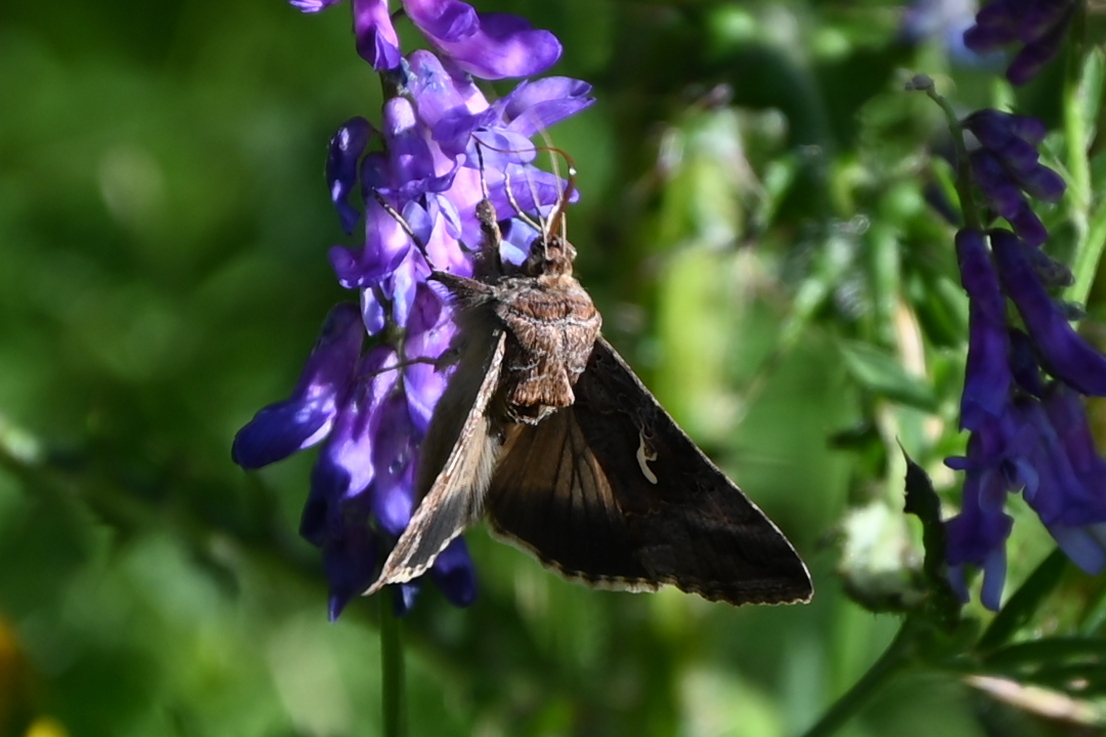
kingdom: Animalia
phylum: Arthropoda
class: Insecta
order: Lepidoptera
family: Noctuidae
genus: Autographa
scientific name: Autographa gamma
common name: Silver y
